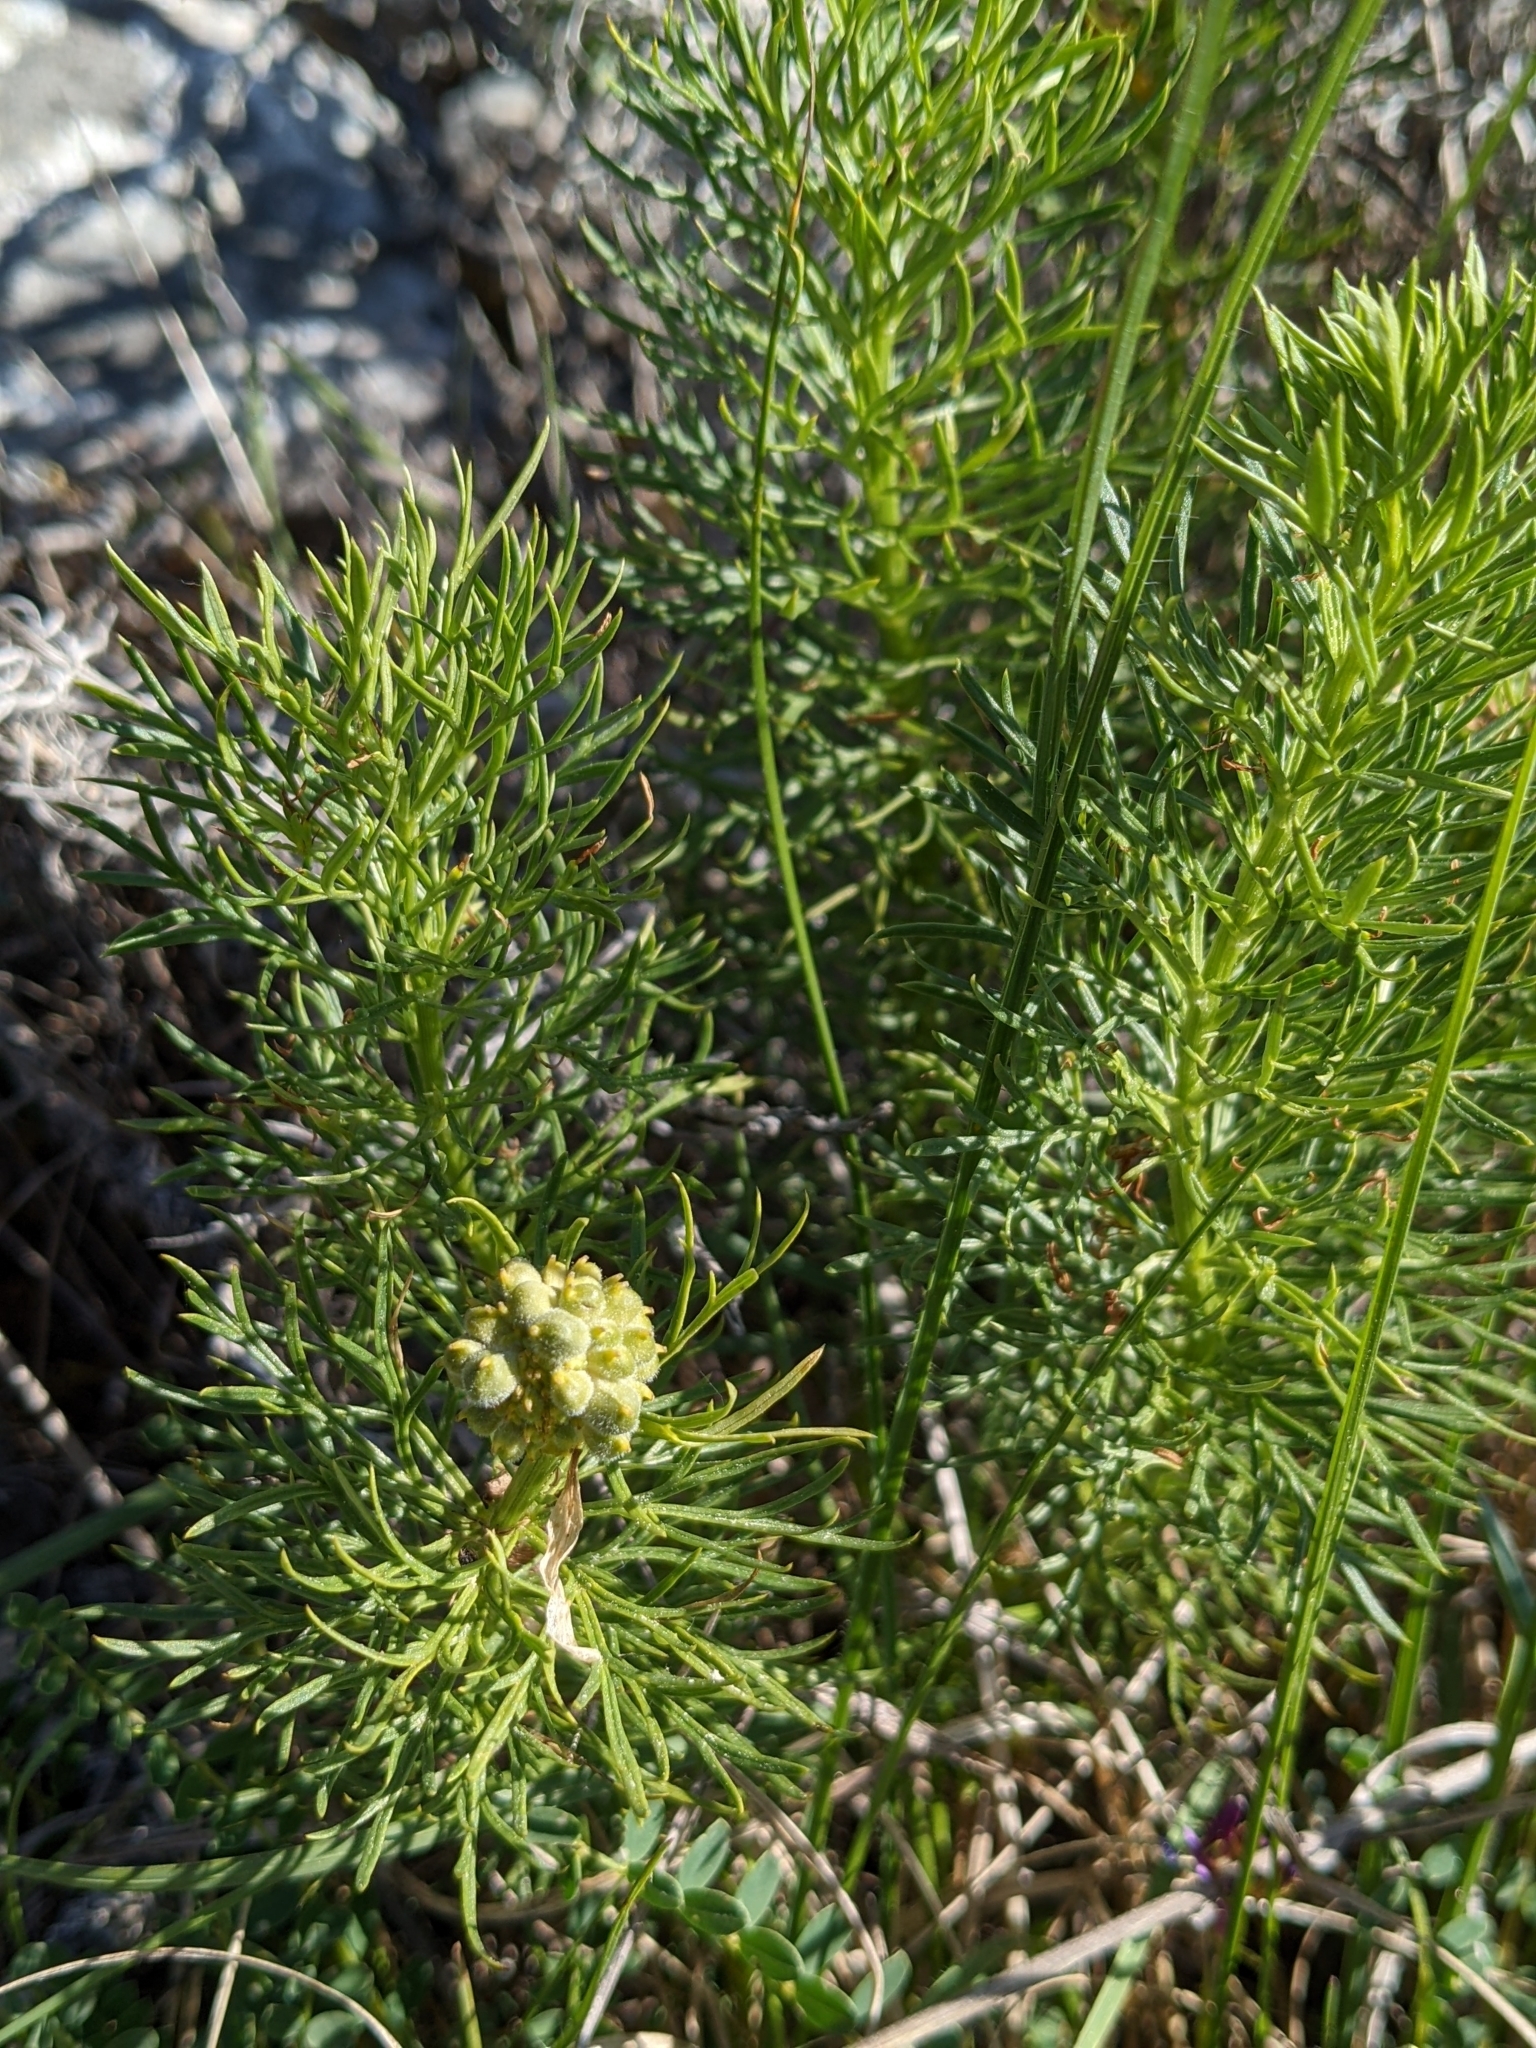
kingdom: Plantae
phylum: Tracheophyta
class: Magnoliopsida
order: Ranunculales
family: Ranunculaceae
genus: Adonis
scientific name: Adonis vernalis
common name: Yellow pheasants-eye
